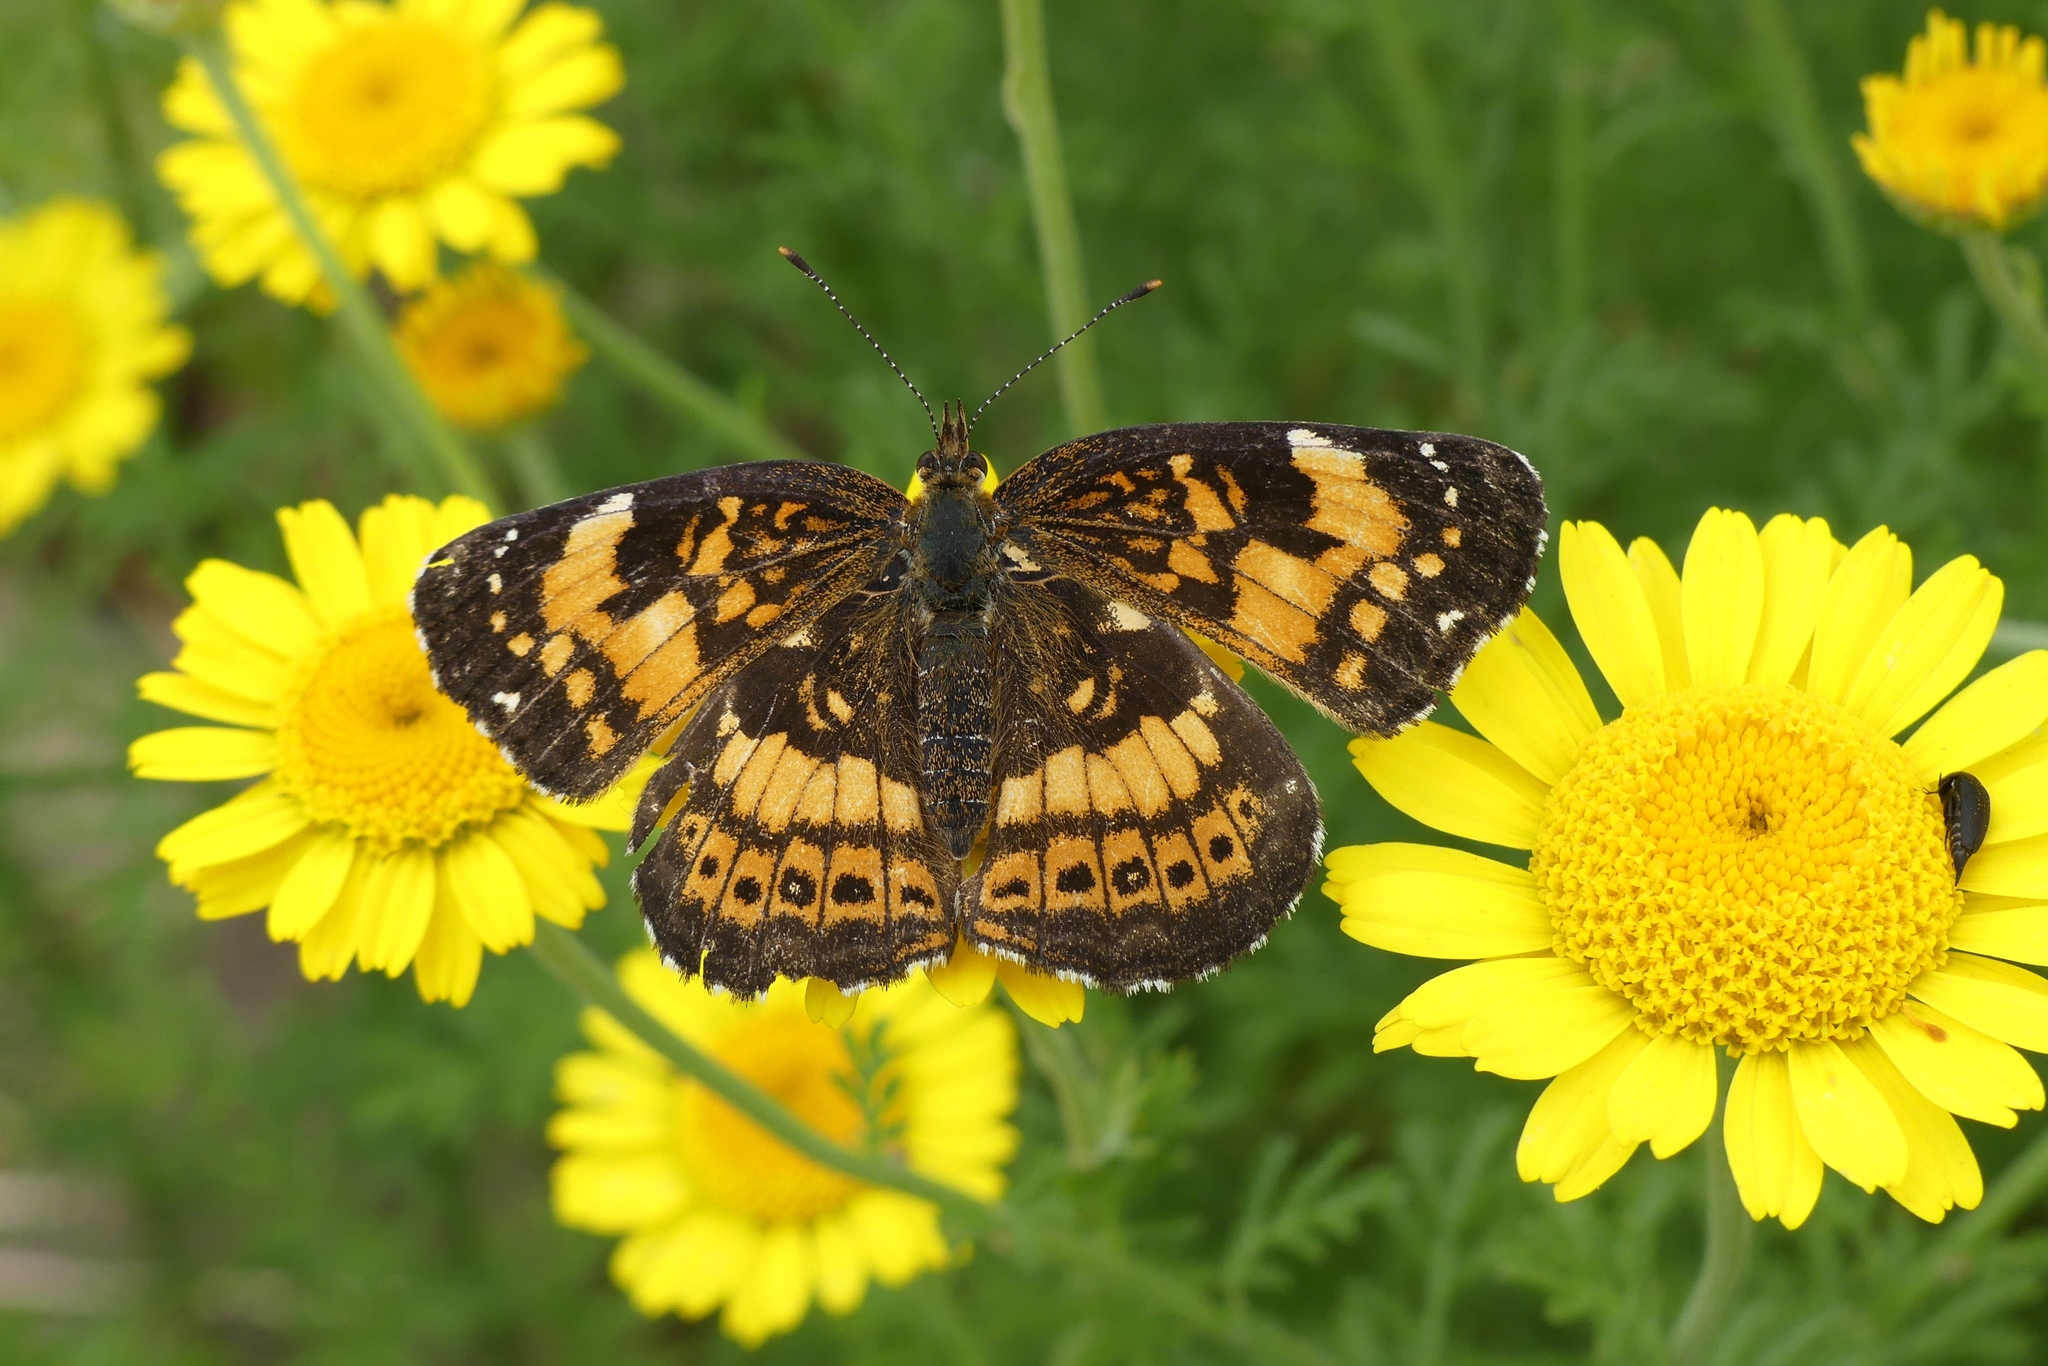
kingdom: Animalia
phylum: Arthropoda
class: Insecta
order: Lepidoptera
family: Nymphalidae
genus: Chlosyne
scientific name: Chlosyne nycteis
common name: Silvery checkerspot
